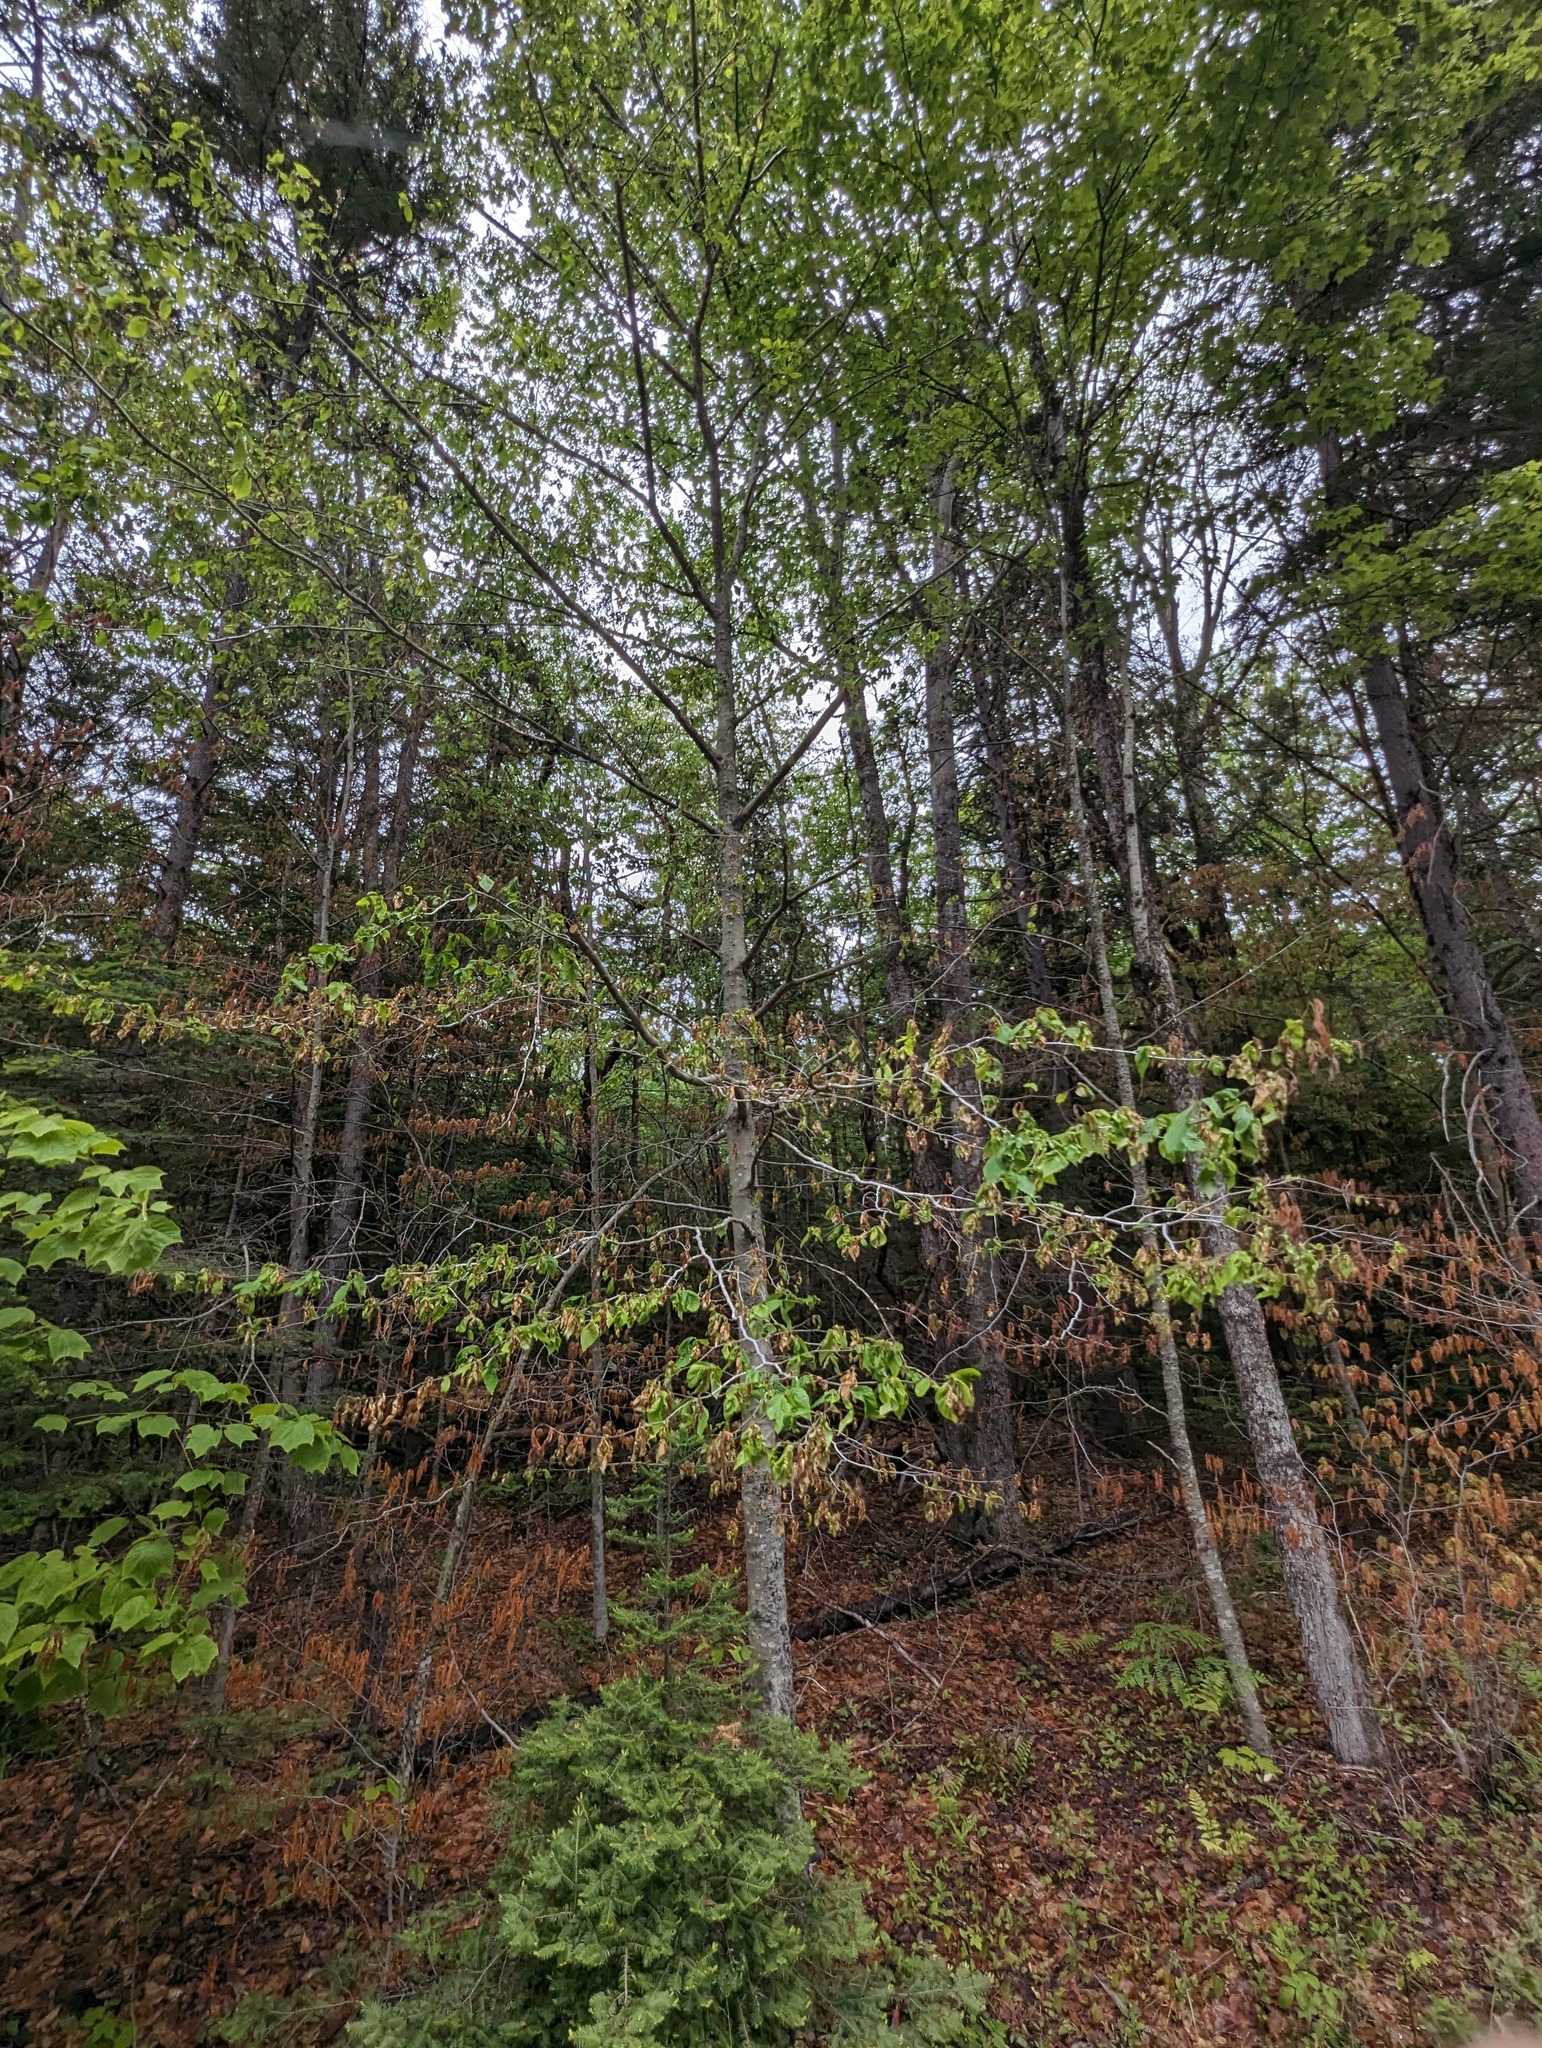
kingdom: Plantae
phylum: Tracheophyta
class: Magnoliopsida
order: Fagales
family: Fagaceae
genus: Fagus
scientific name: Fagus grandifolia
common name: American beech
